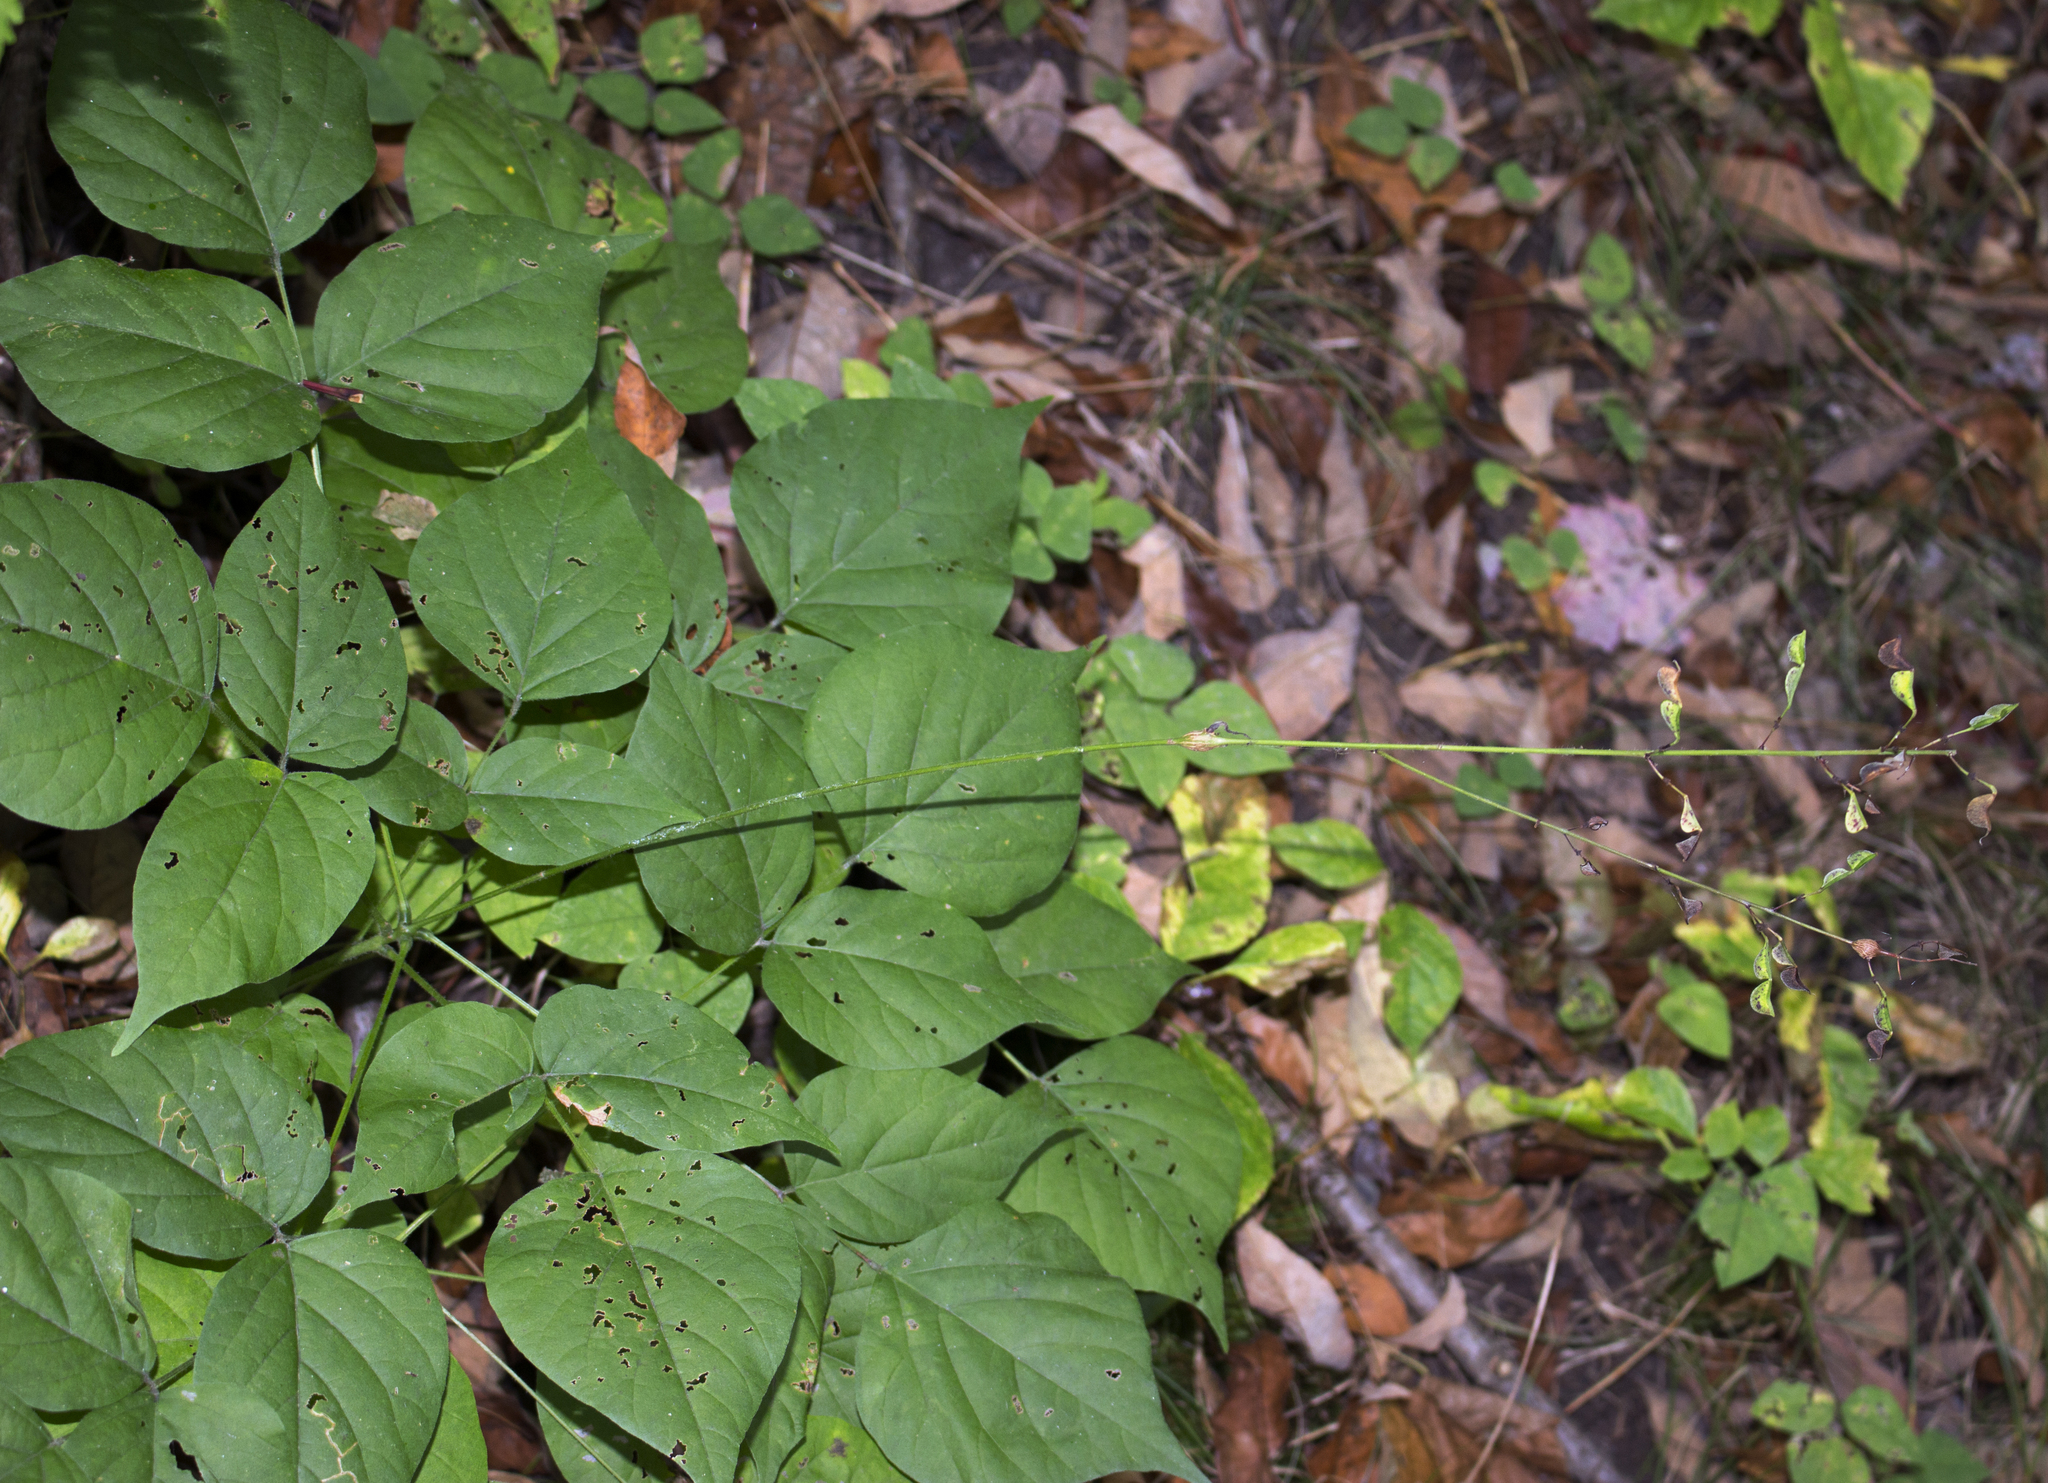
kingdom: Plantae
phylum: Tracheophyta
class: Magnoliopsida
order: Fabales
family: Fabaceae
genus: Hylodesmum
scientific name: Hylodesmum glutinosum
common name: Clustered-leaved tick-trefoil
